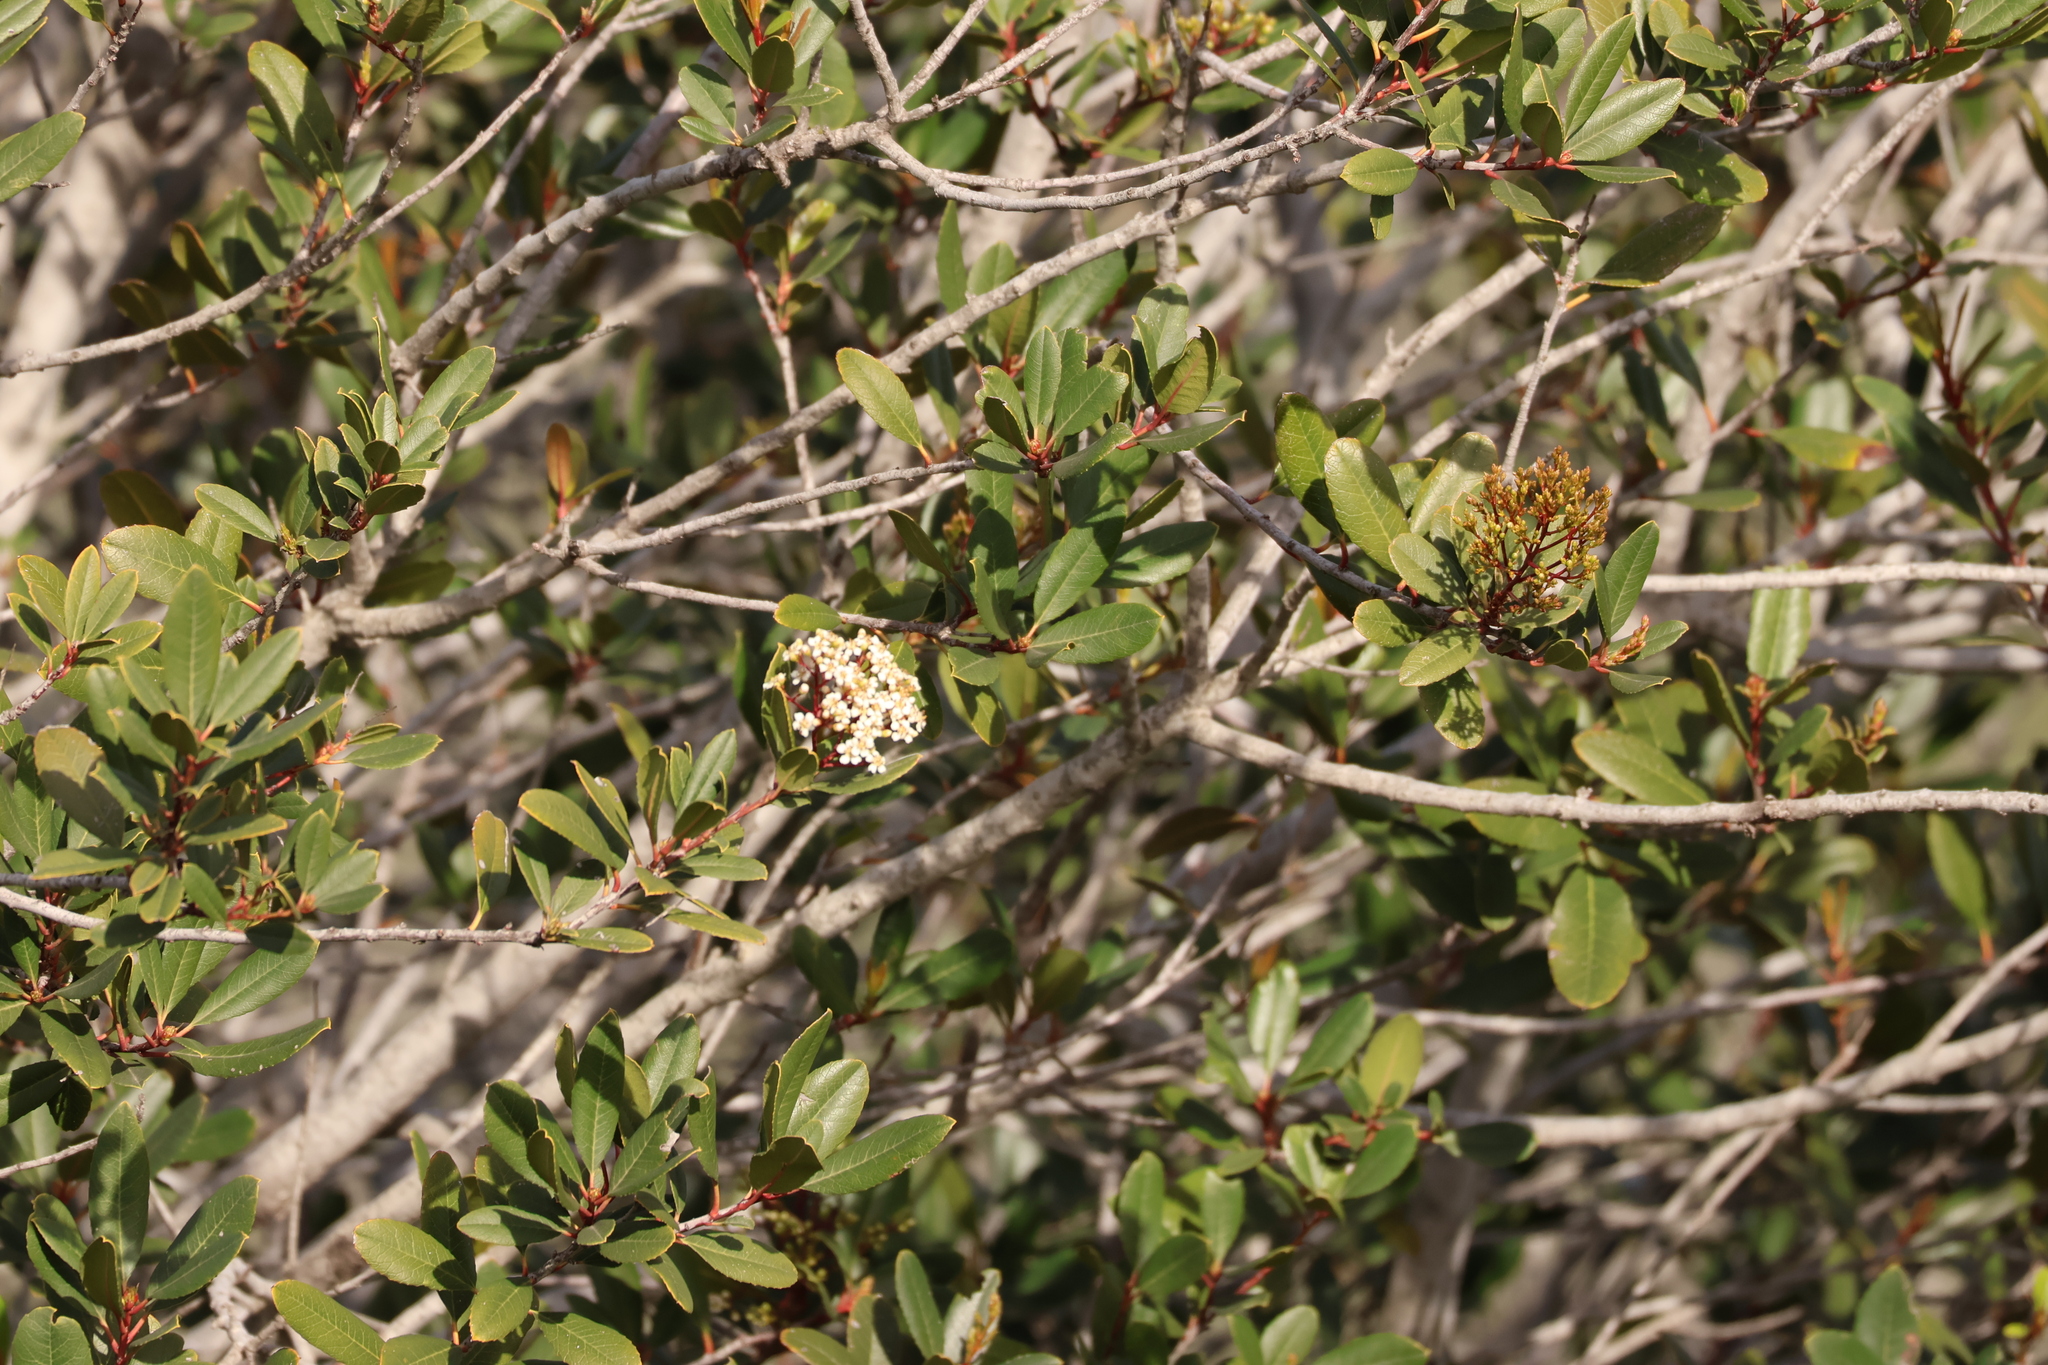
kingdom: Plantae
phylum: Tracheophyta
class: Magnoliopsida
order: Rosales
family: Rosaceae
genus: Heteromeles
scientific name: Heteromeles arbutifolia
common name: California-holly
